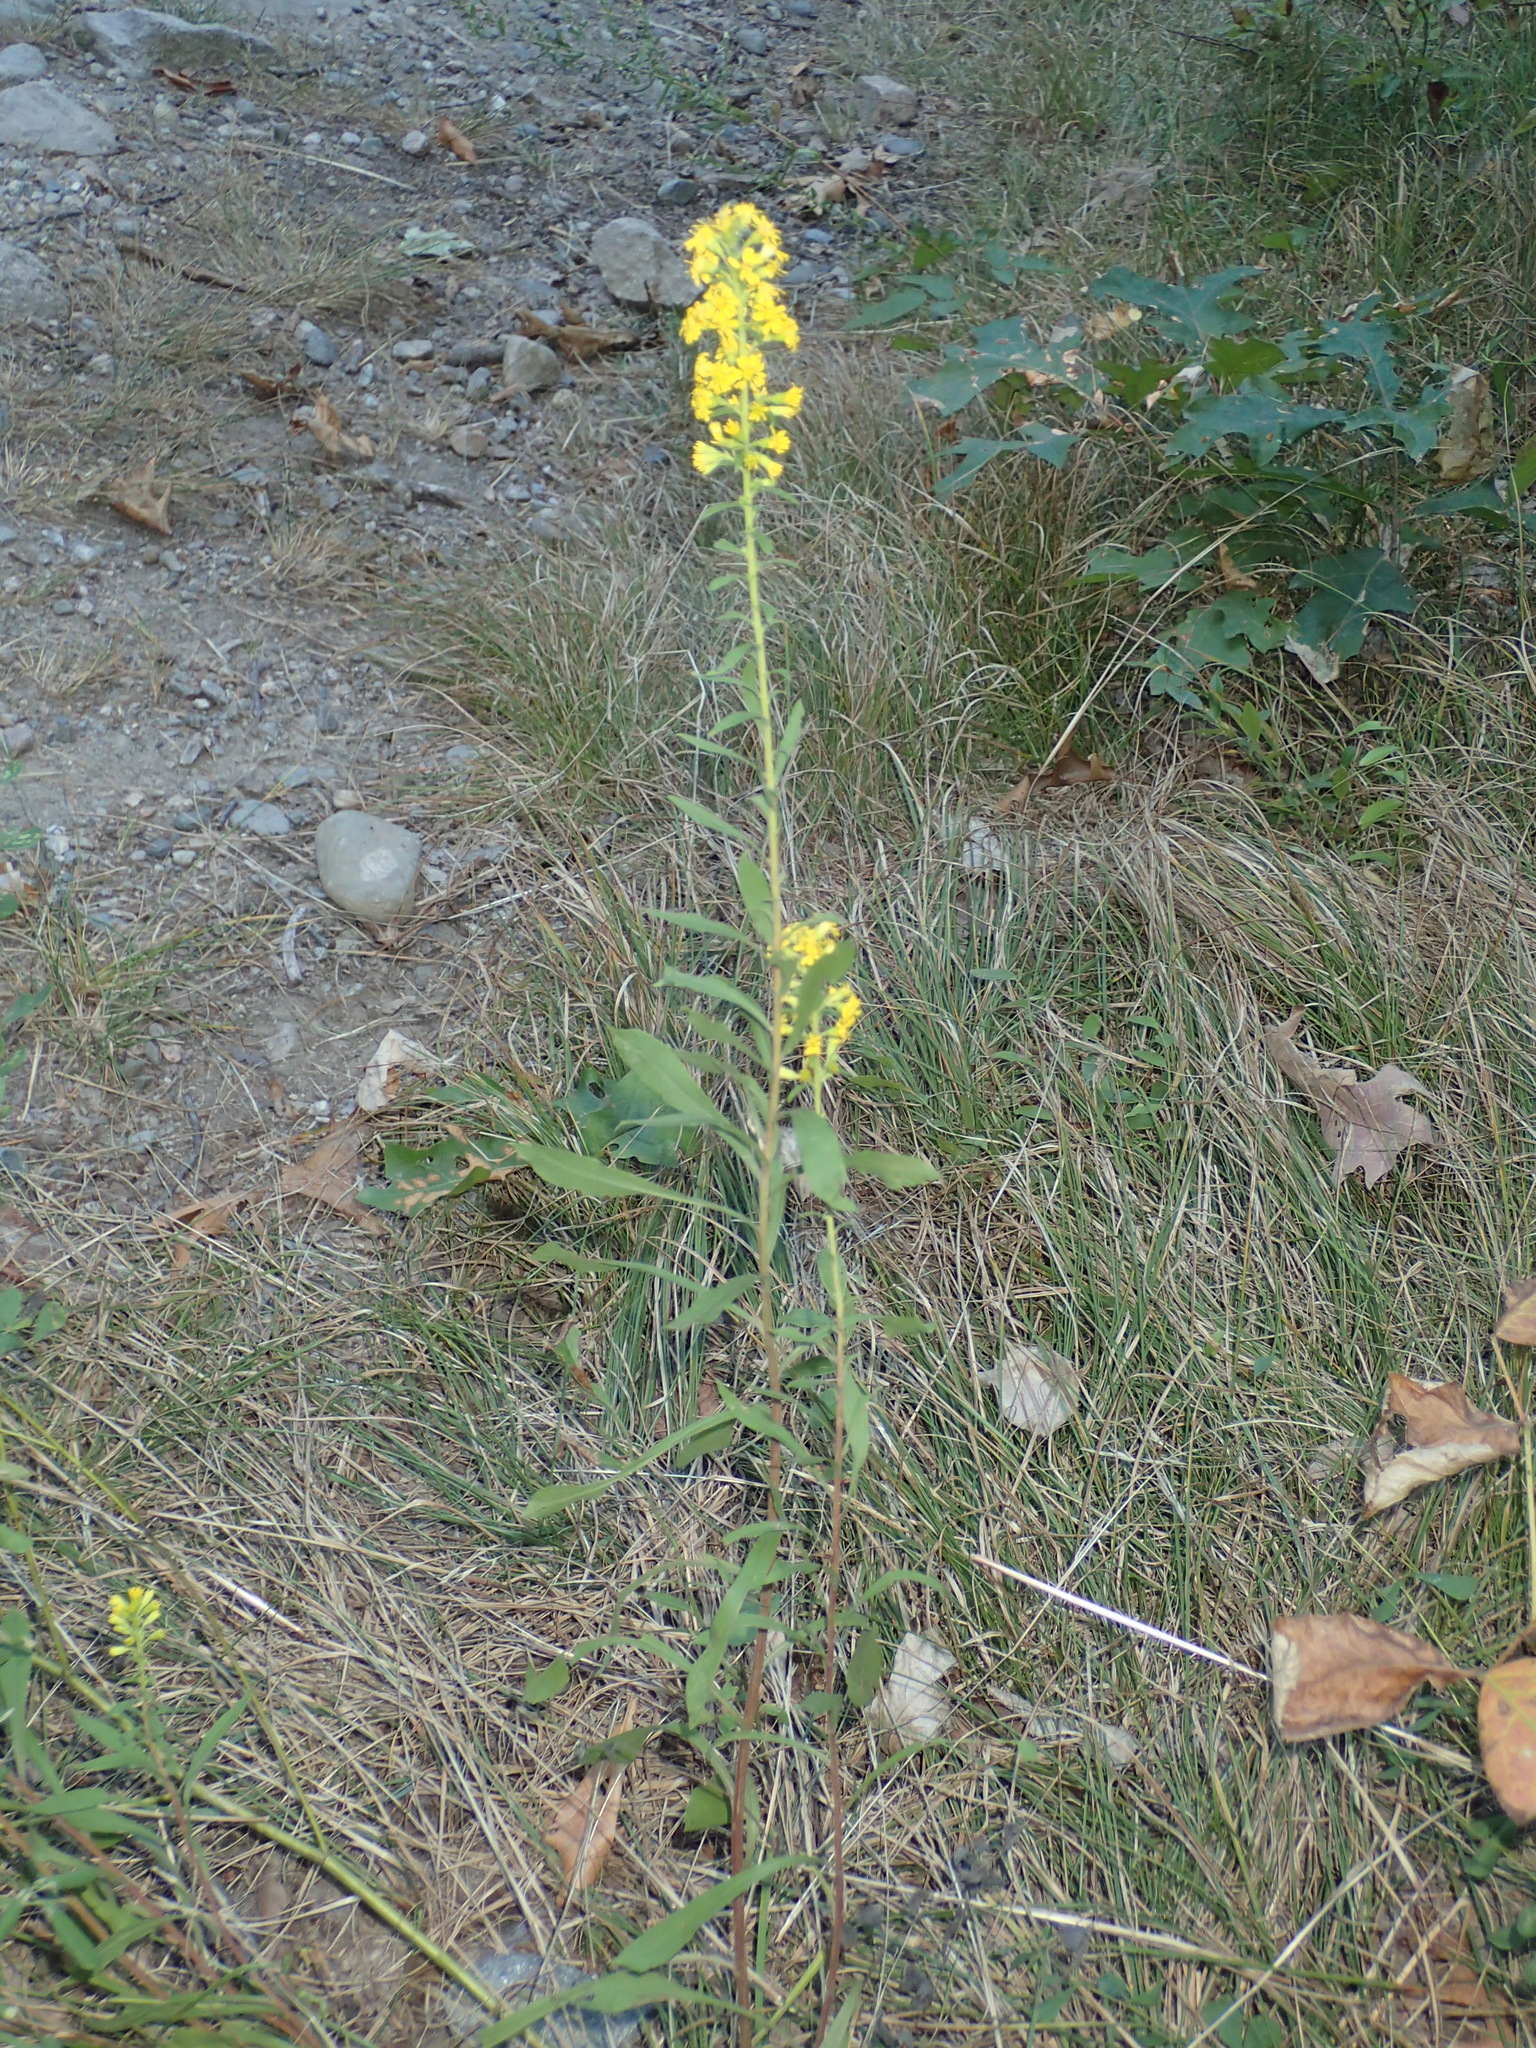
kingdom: Plantae
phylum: Tracheophyta
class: Magnoliopsida
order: Asterales
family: Asteraceae
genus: Solidago
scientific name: Solidago puberula
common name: Downy goldenrod
